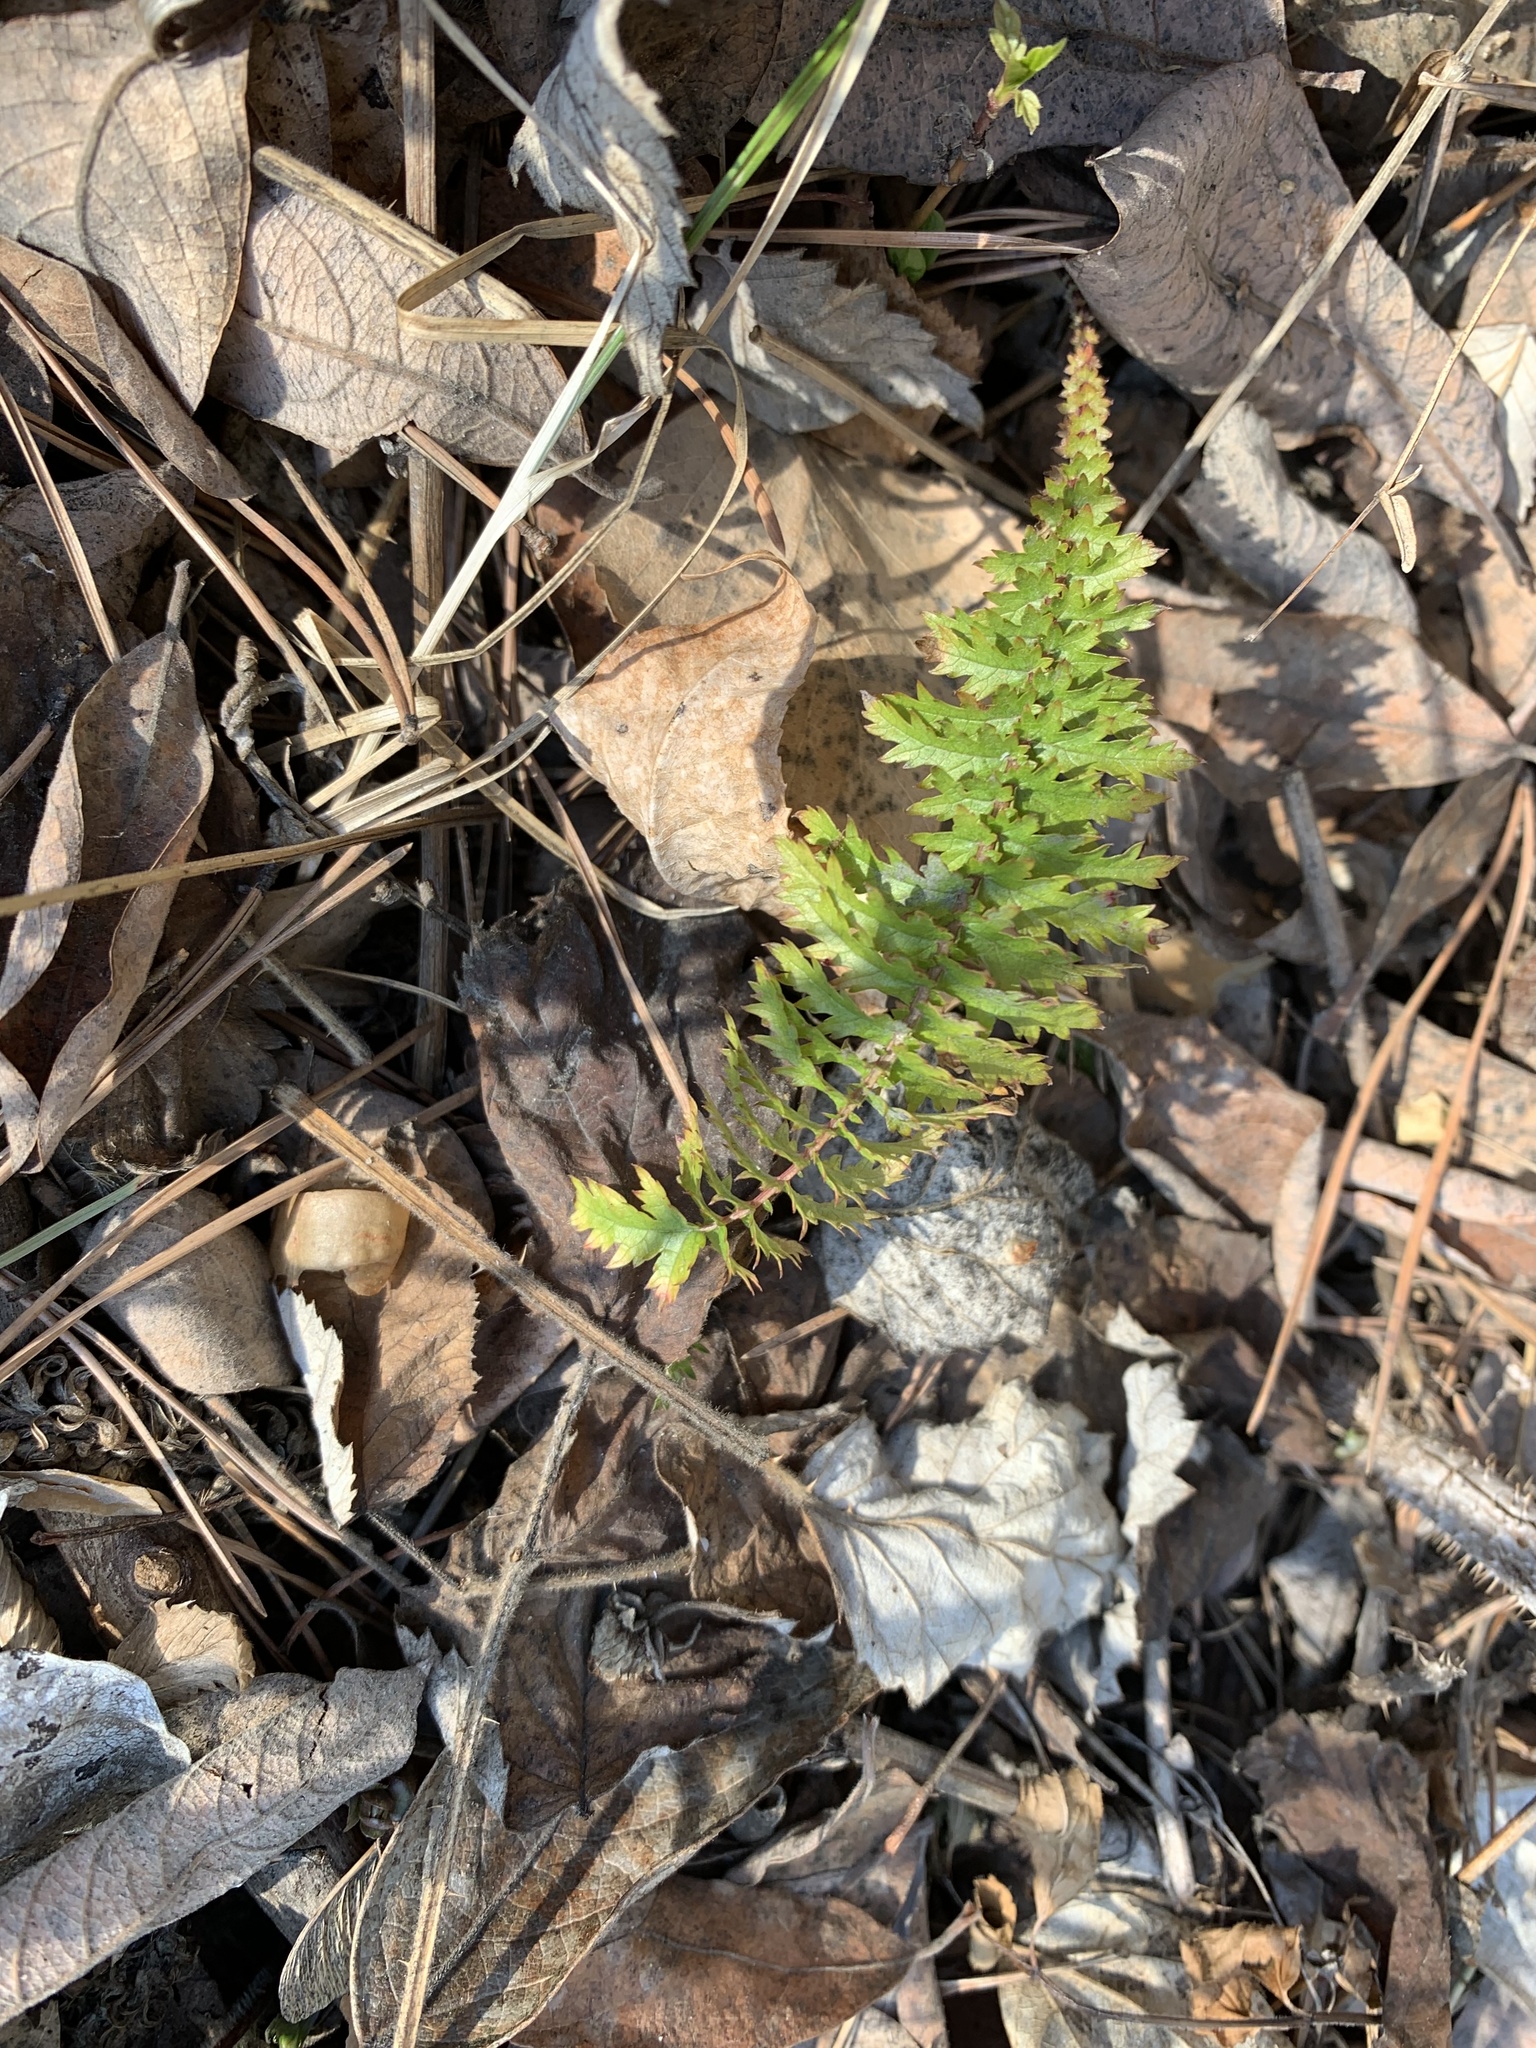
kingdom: Plantae
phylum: Tracheophyta
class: Magnoliopsida
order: Rosales
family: Rosaceae
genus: Filipendula
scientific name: Filipendula vulgaris
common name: Dropwort
